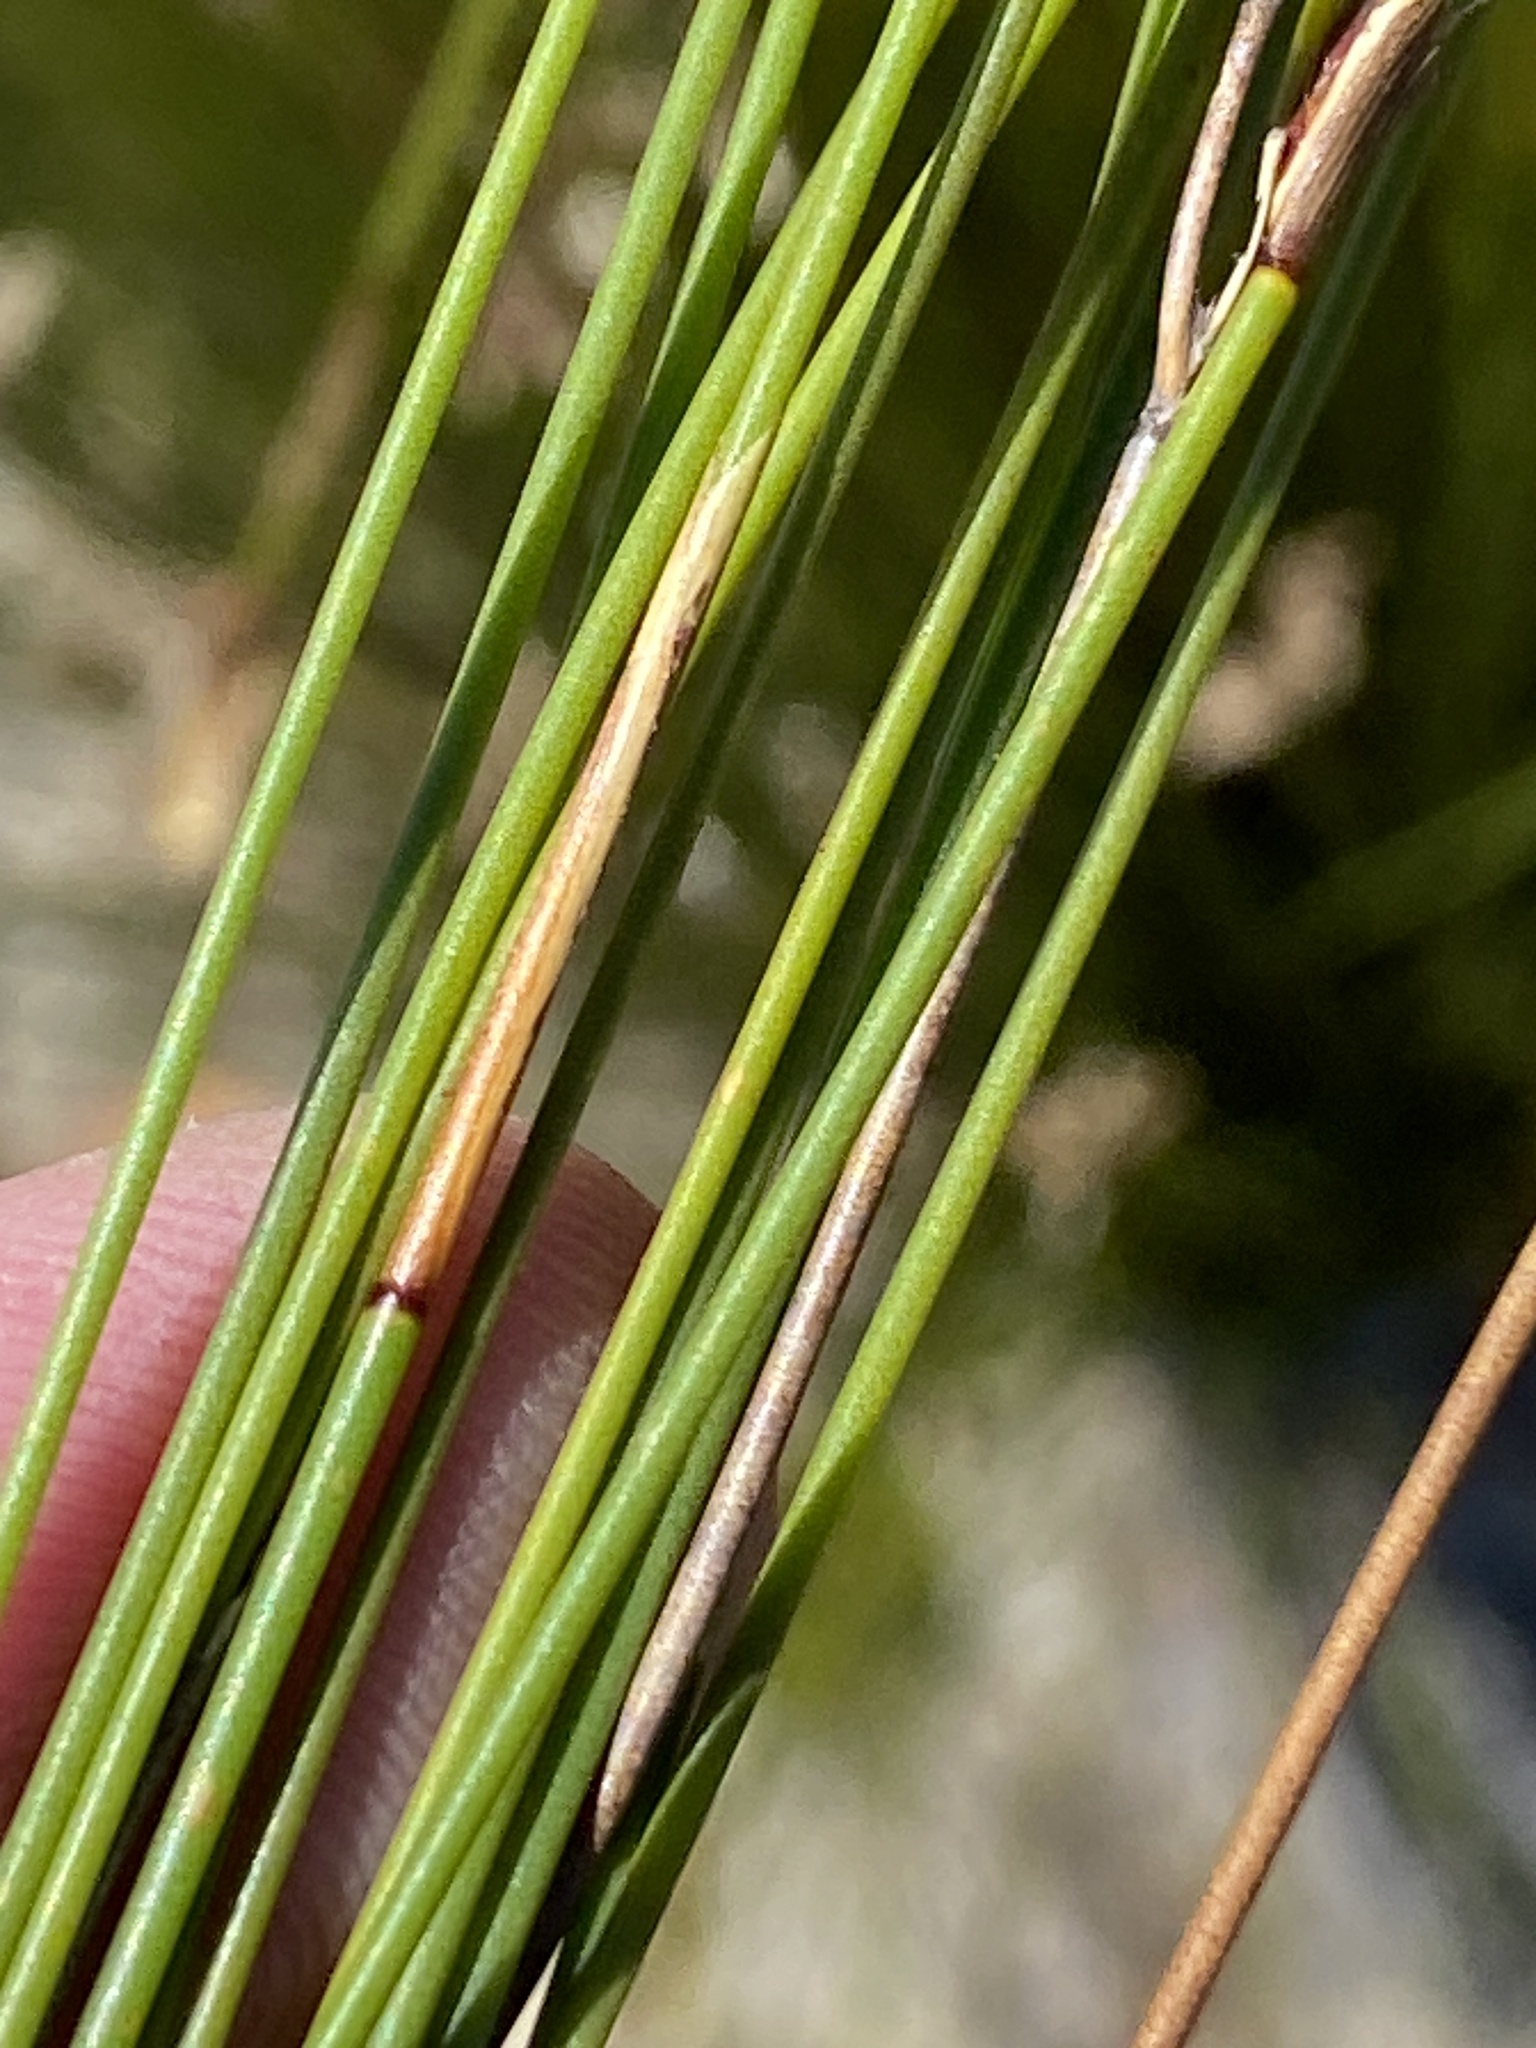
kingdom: Plantae
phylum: Tracheophyta
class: Liliopsida
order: Poales
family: Restionaceae
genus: Hypodiscus
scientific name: Hypodiscus synchroolepis
